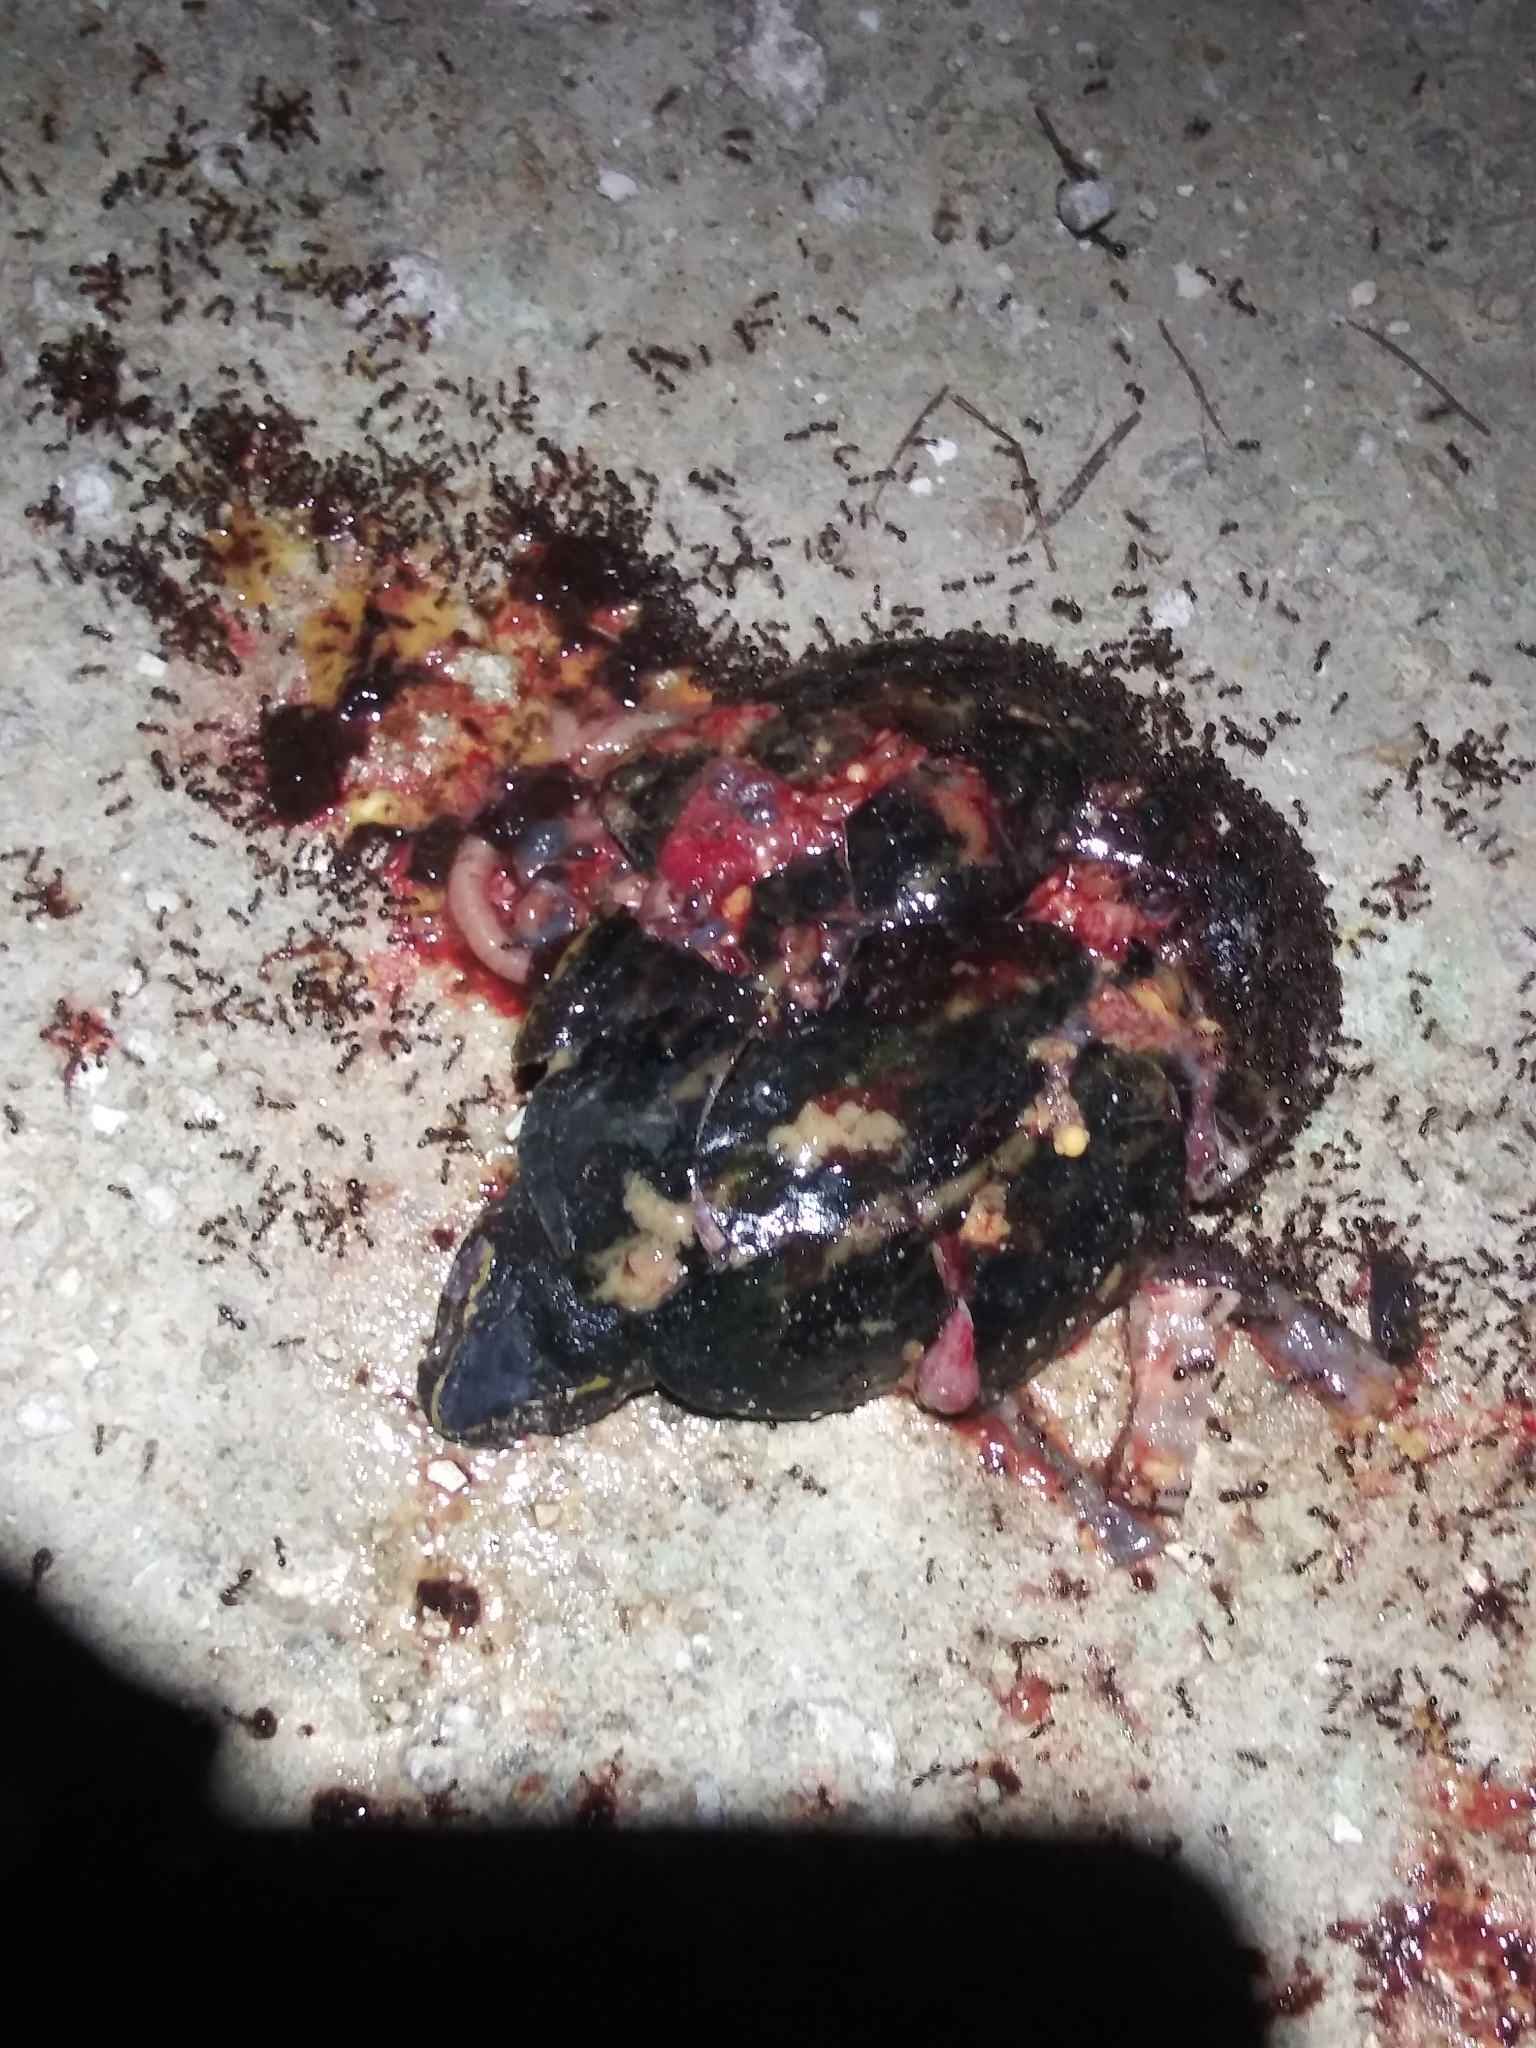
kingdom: Animalia
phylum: Chordata
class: Testudines
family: Kinosternidae
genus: Kinosternon
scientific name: Kinosternon baurii
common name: Striped mud turtle
